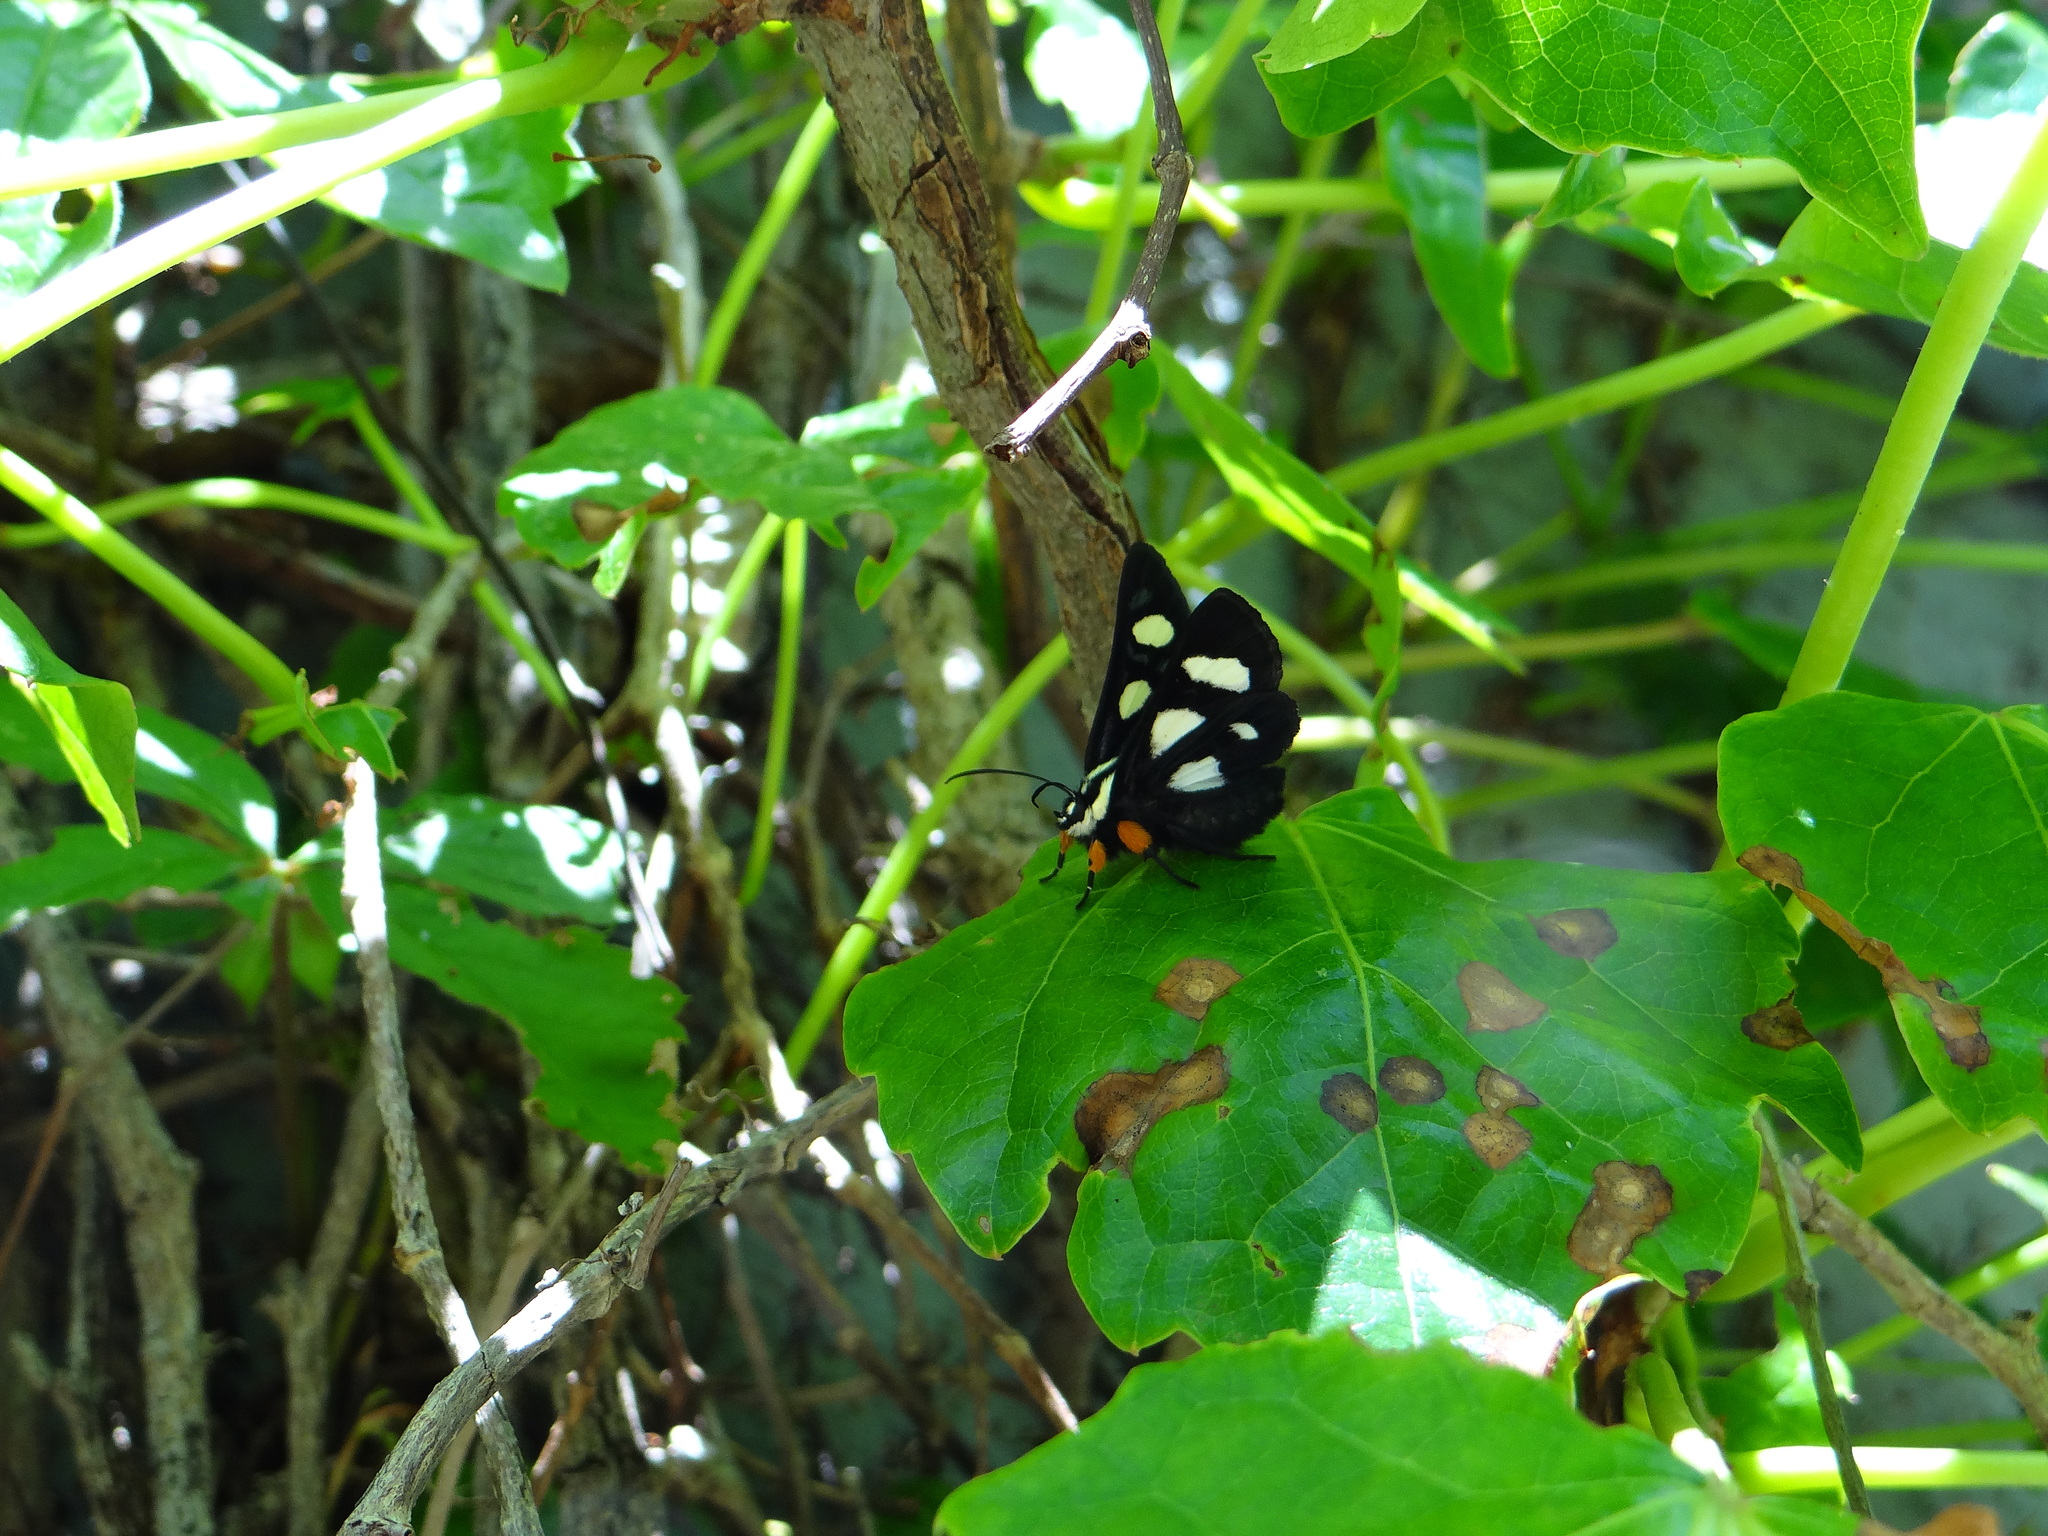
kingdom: Animalia
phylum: Arthropoda
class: Insecta
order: Lepidoptera
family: Noctuidae
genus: Alypia
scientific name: Alypia octomaculata
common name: Eight-spotted forester
